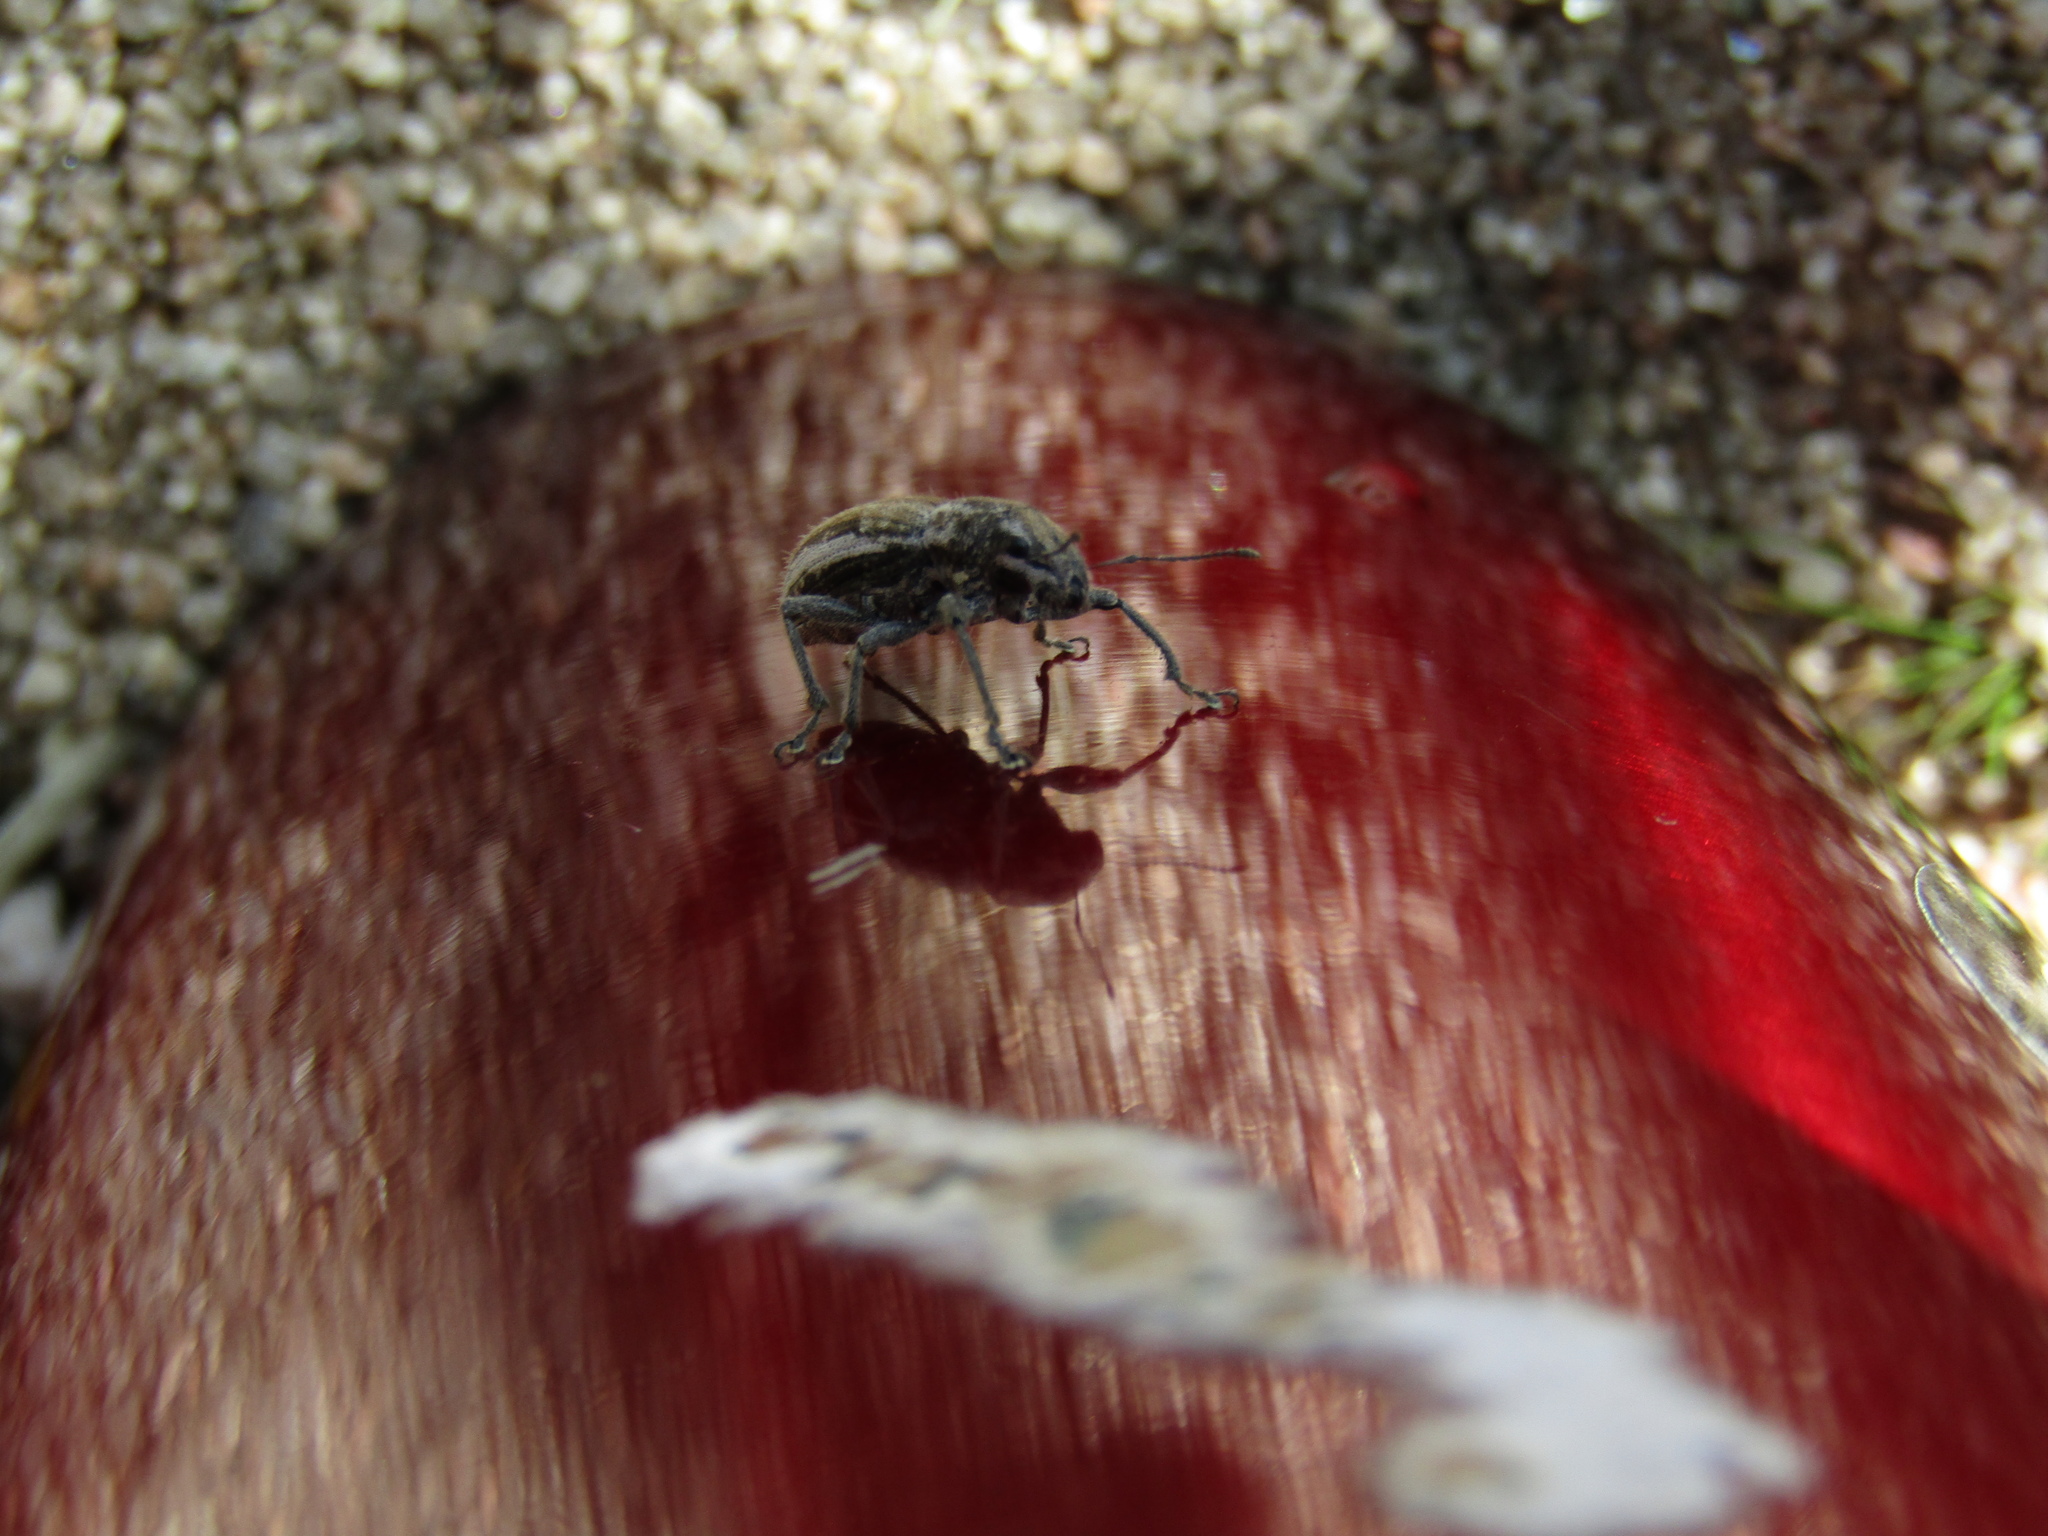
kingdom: Animalia
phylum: Arthropoda
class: Insecta
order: Coleoptera
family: Curculionidae
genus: Naupactus
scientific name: Naupactus leucoloma
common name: Whitefringed beetle
